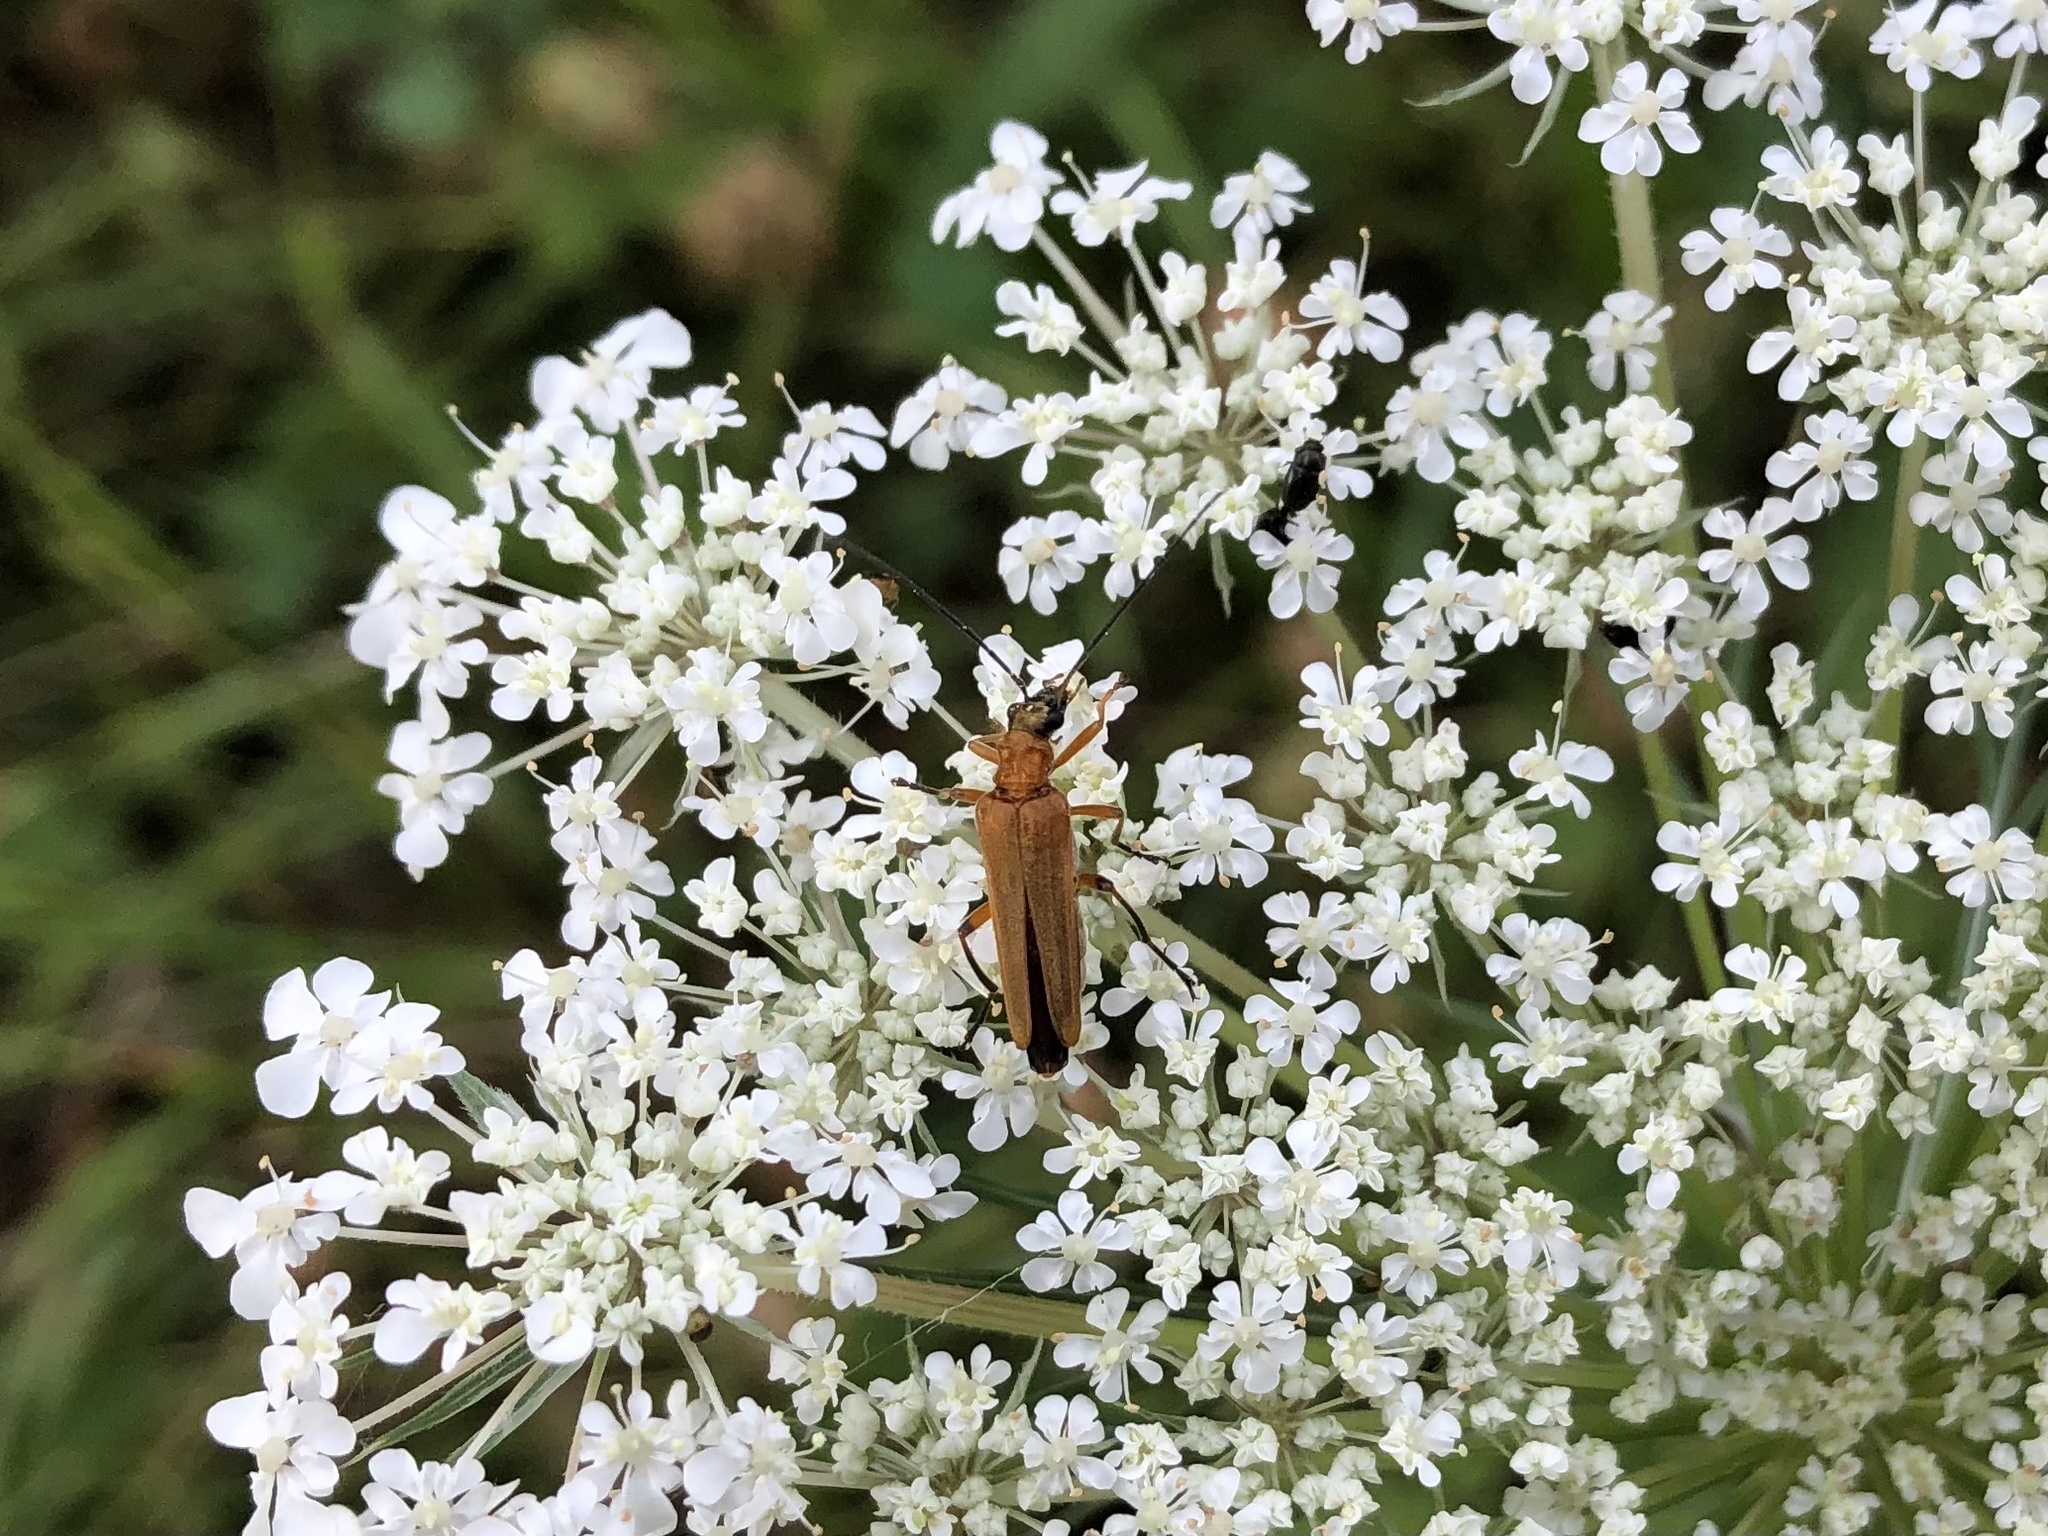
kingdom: Animalia
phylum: Arthropoda
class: Insecta
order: Coleoptera
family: Oedemeridae
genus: Oedemera
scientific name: Oedemera podagrariae
